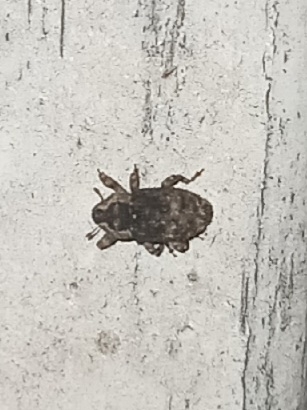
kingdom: Animalia
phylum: Arthropoda
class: Insecta
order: Coleoptera
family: Curculionidae
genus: Cophes
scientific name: Cophes fallax
